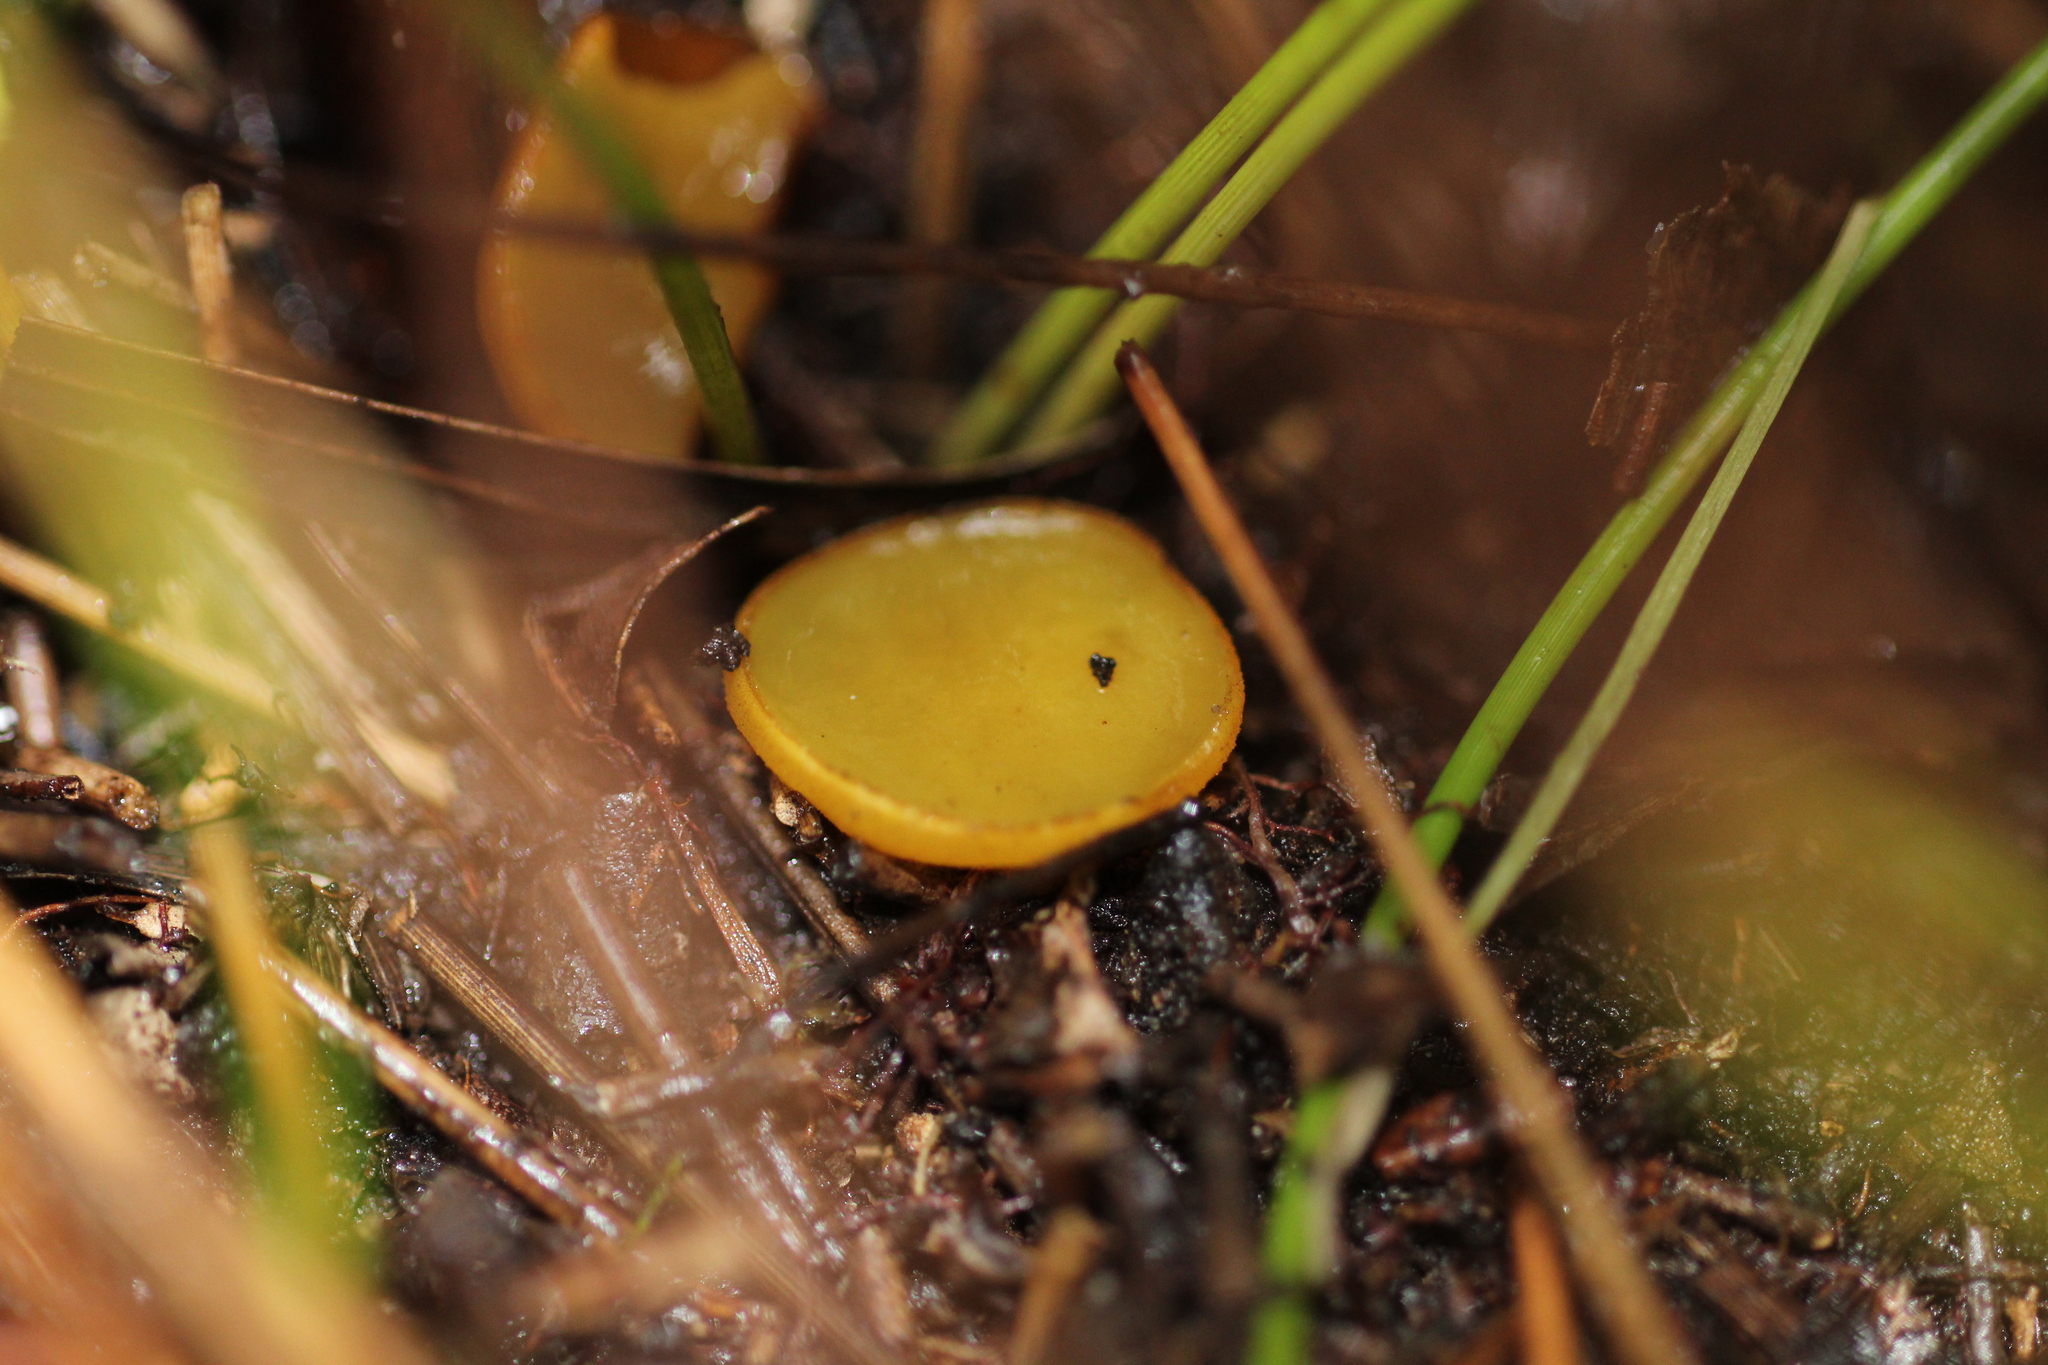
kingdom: Fungi
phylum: Ascomycota
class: Pezizomycetes
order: Pezizales
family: Pyronemataceae
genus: Aleurina
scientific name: Aleurina ferruginea
